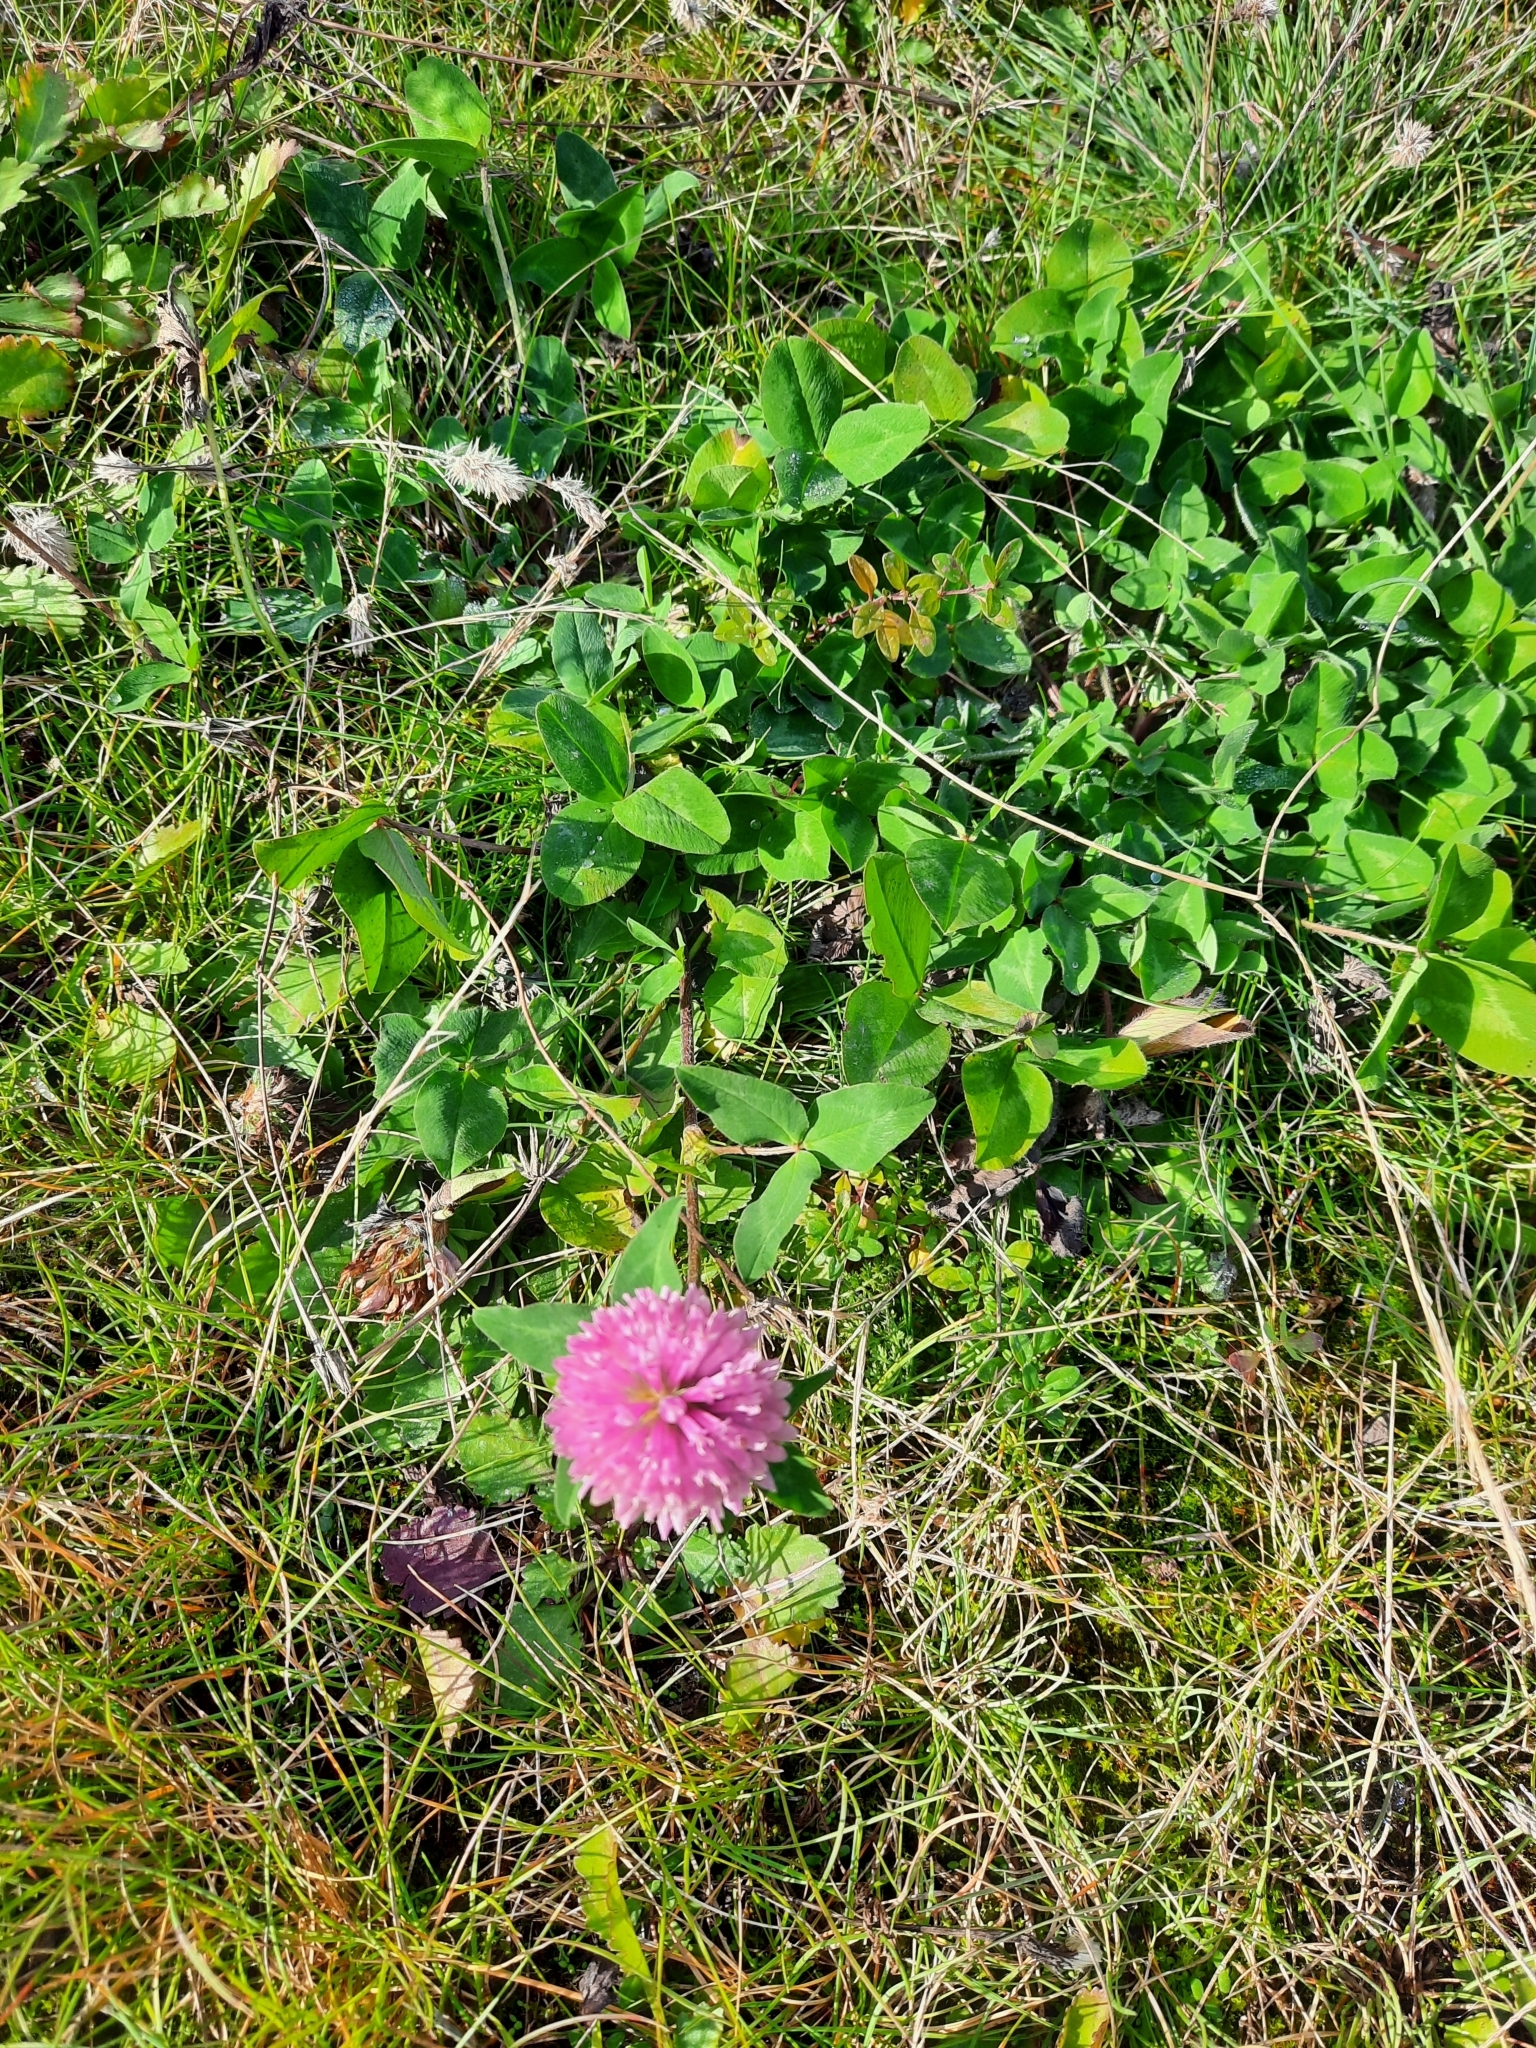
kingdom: Plantae
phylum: Tracheophyta
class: Magnoliopsida
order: Fabales
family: Fabaceae
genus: Trifolium
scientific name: Trifolium pratense
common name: Red clover
